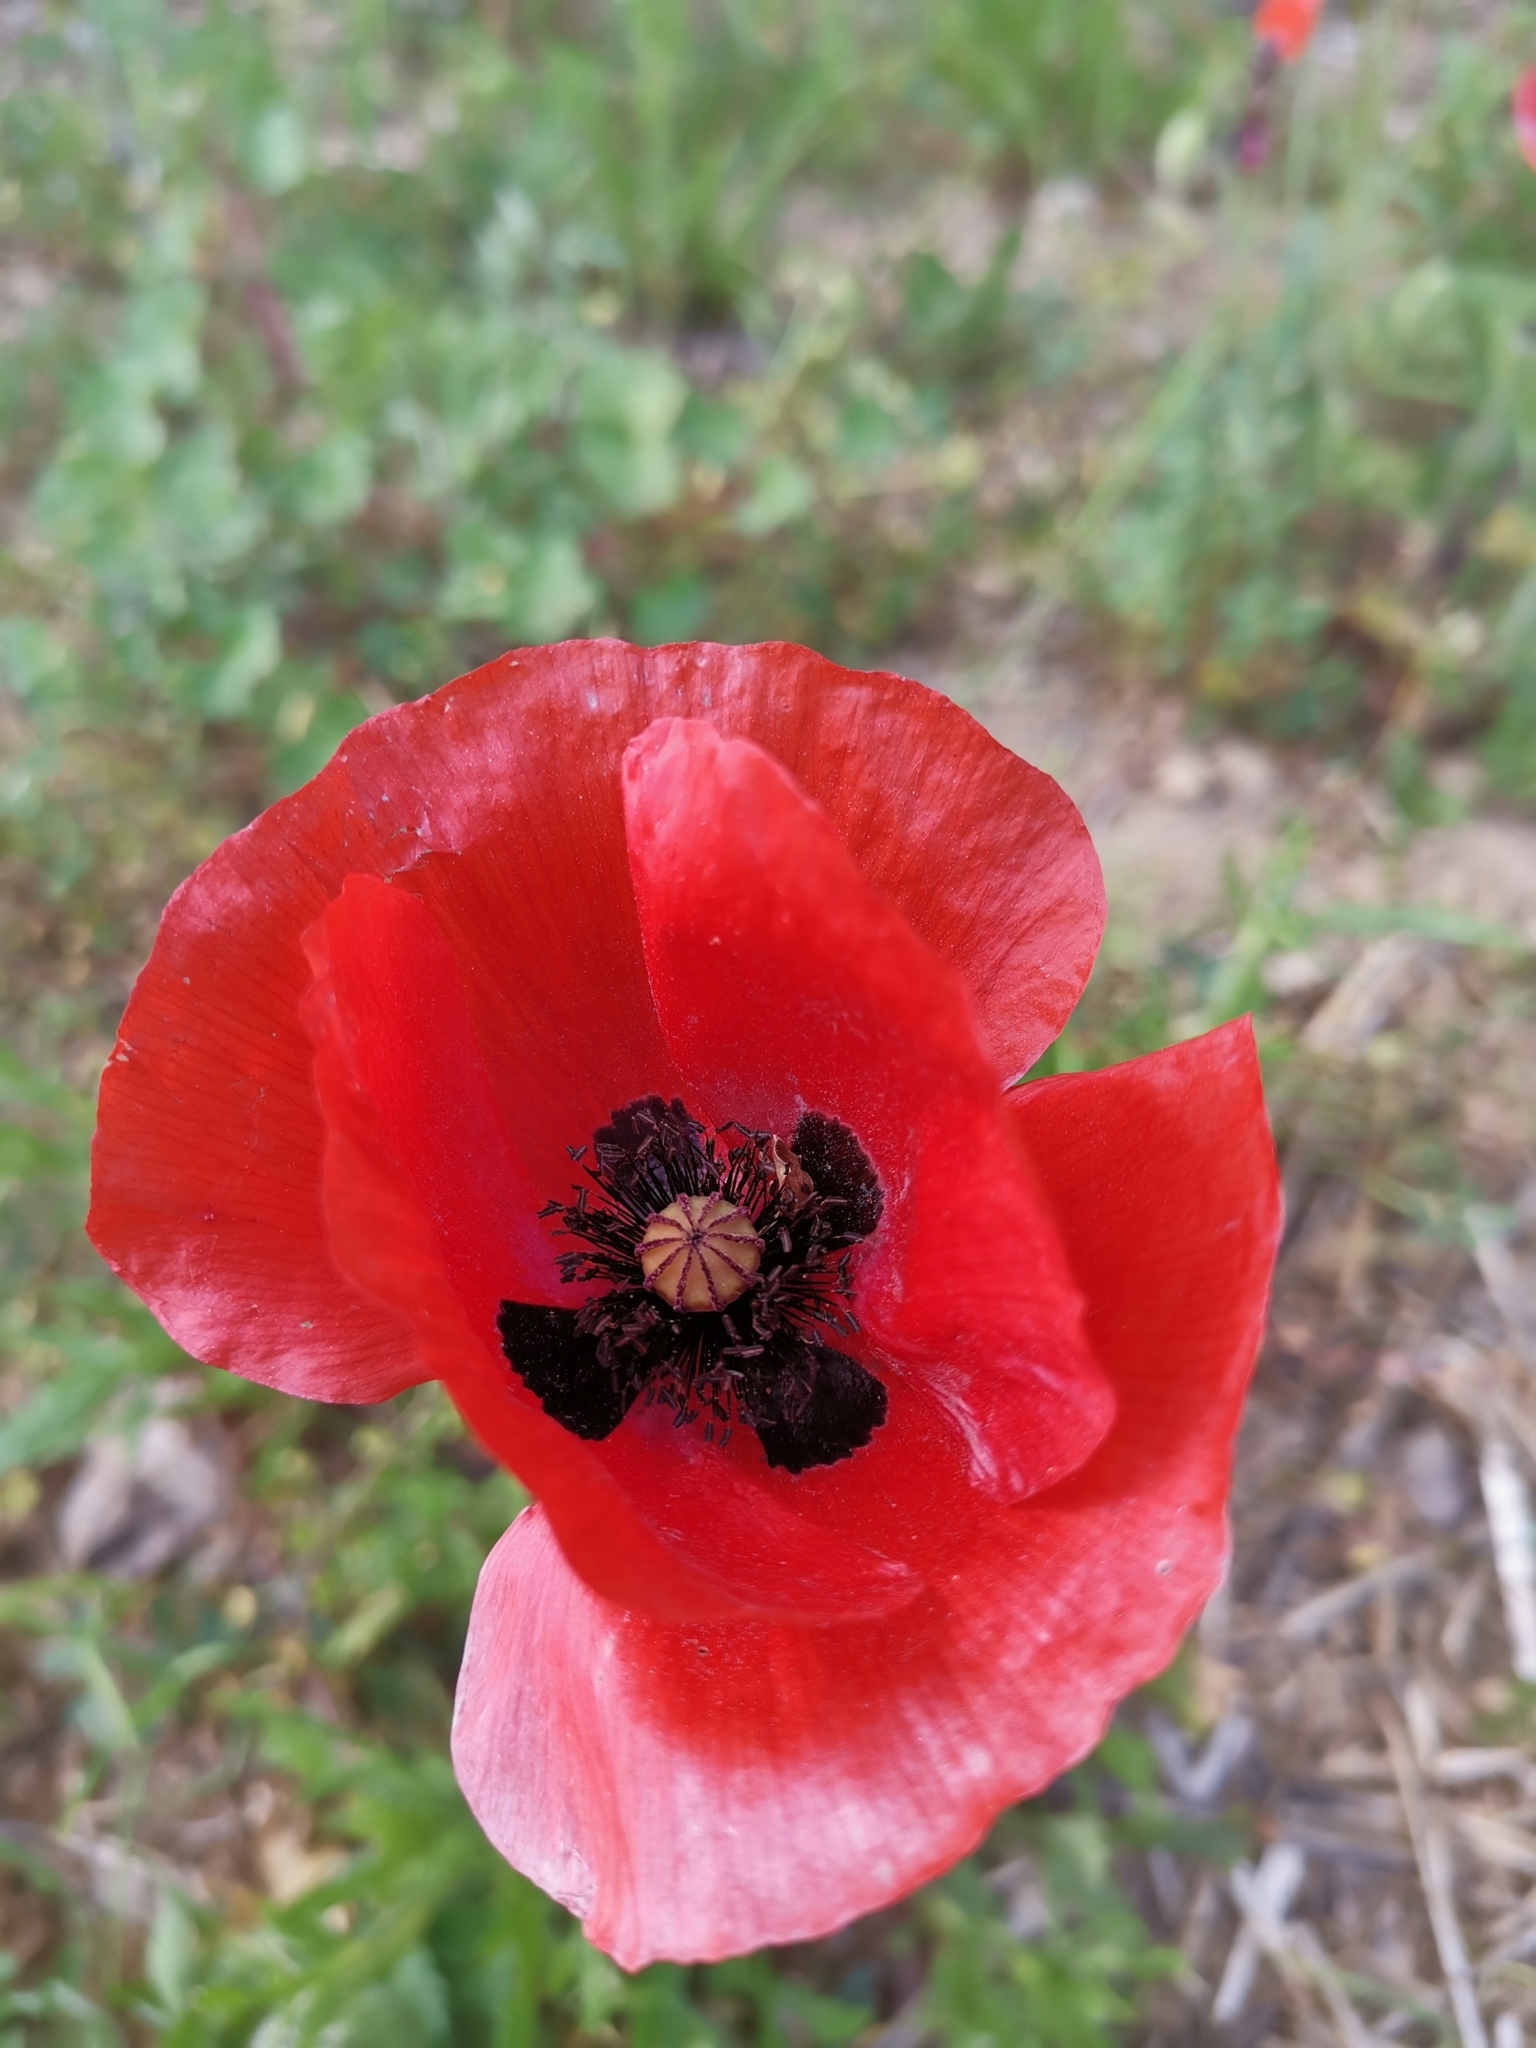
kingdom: Plantae
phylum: Tracheophyta
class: Magnoliopsida
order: Ranunculales
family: Papaveraceae
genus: Papaver
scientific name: Papaver rhoeas
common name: Corn poppy
